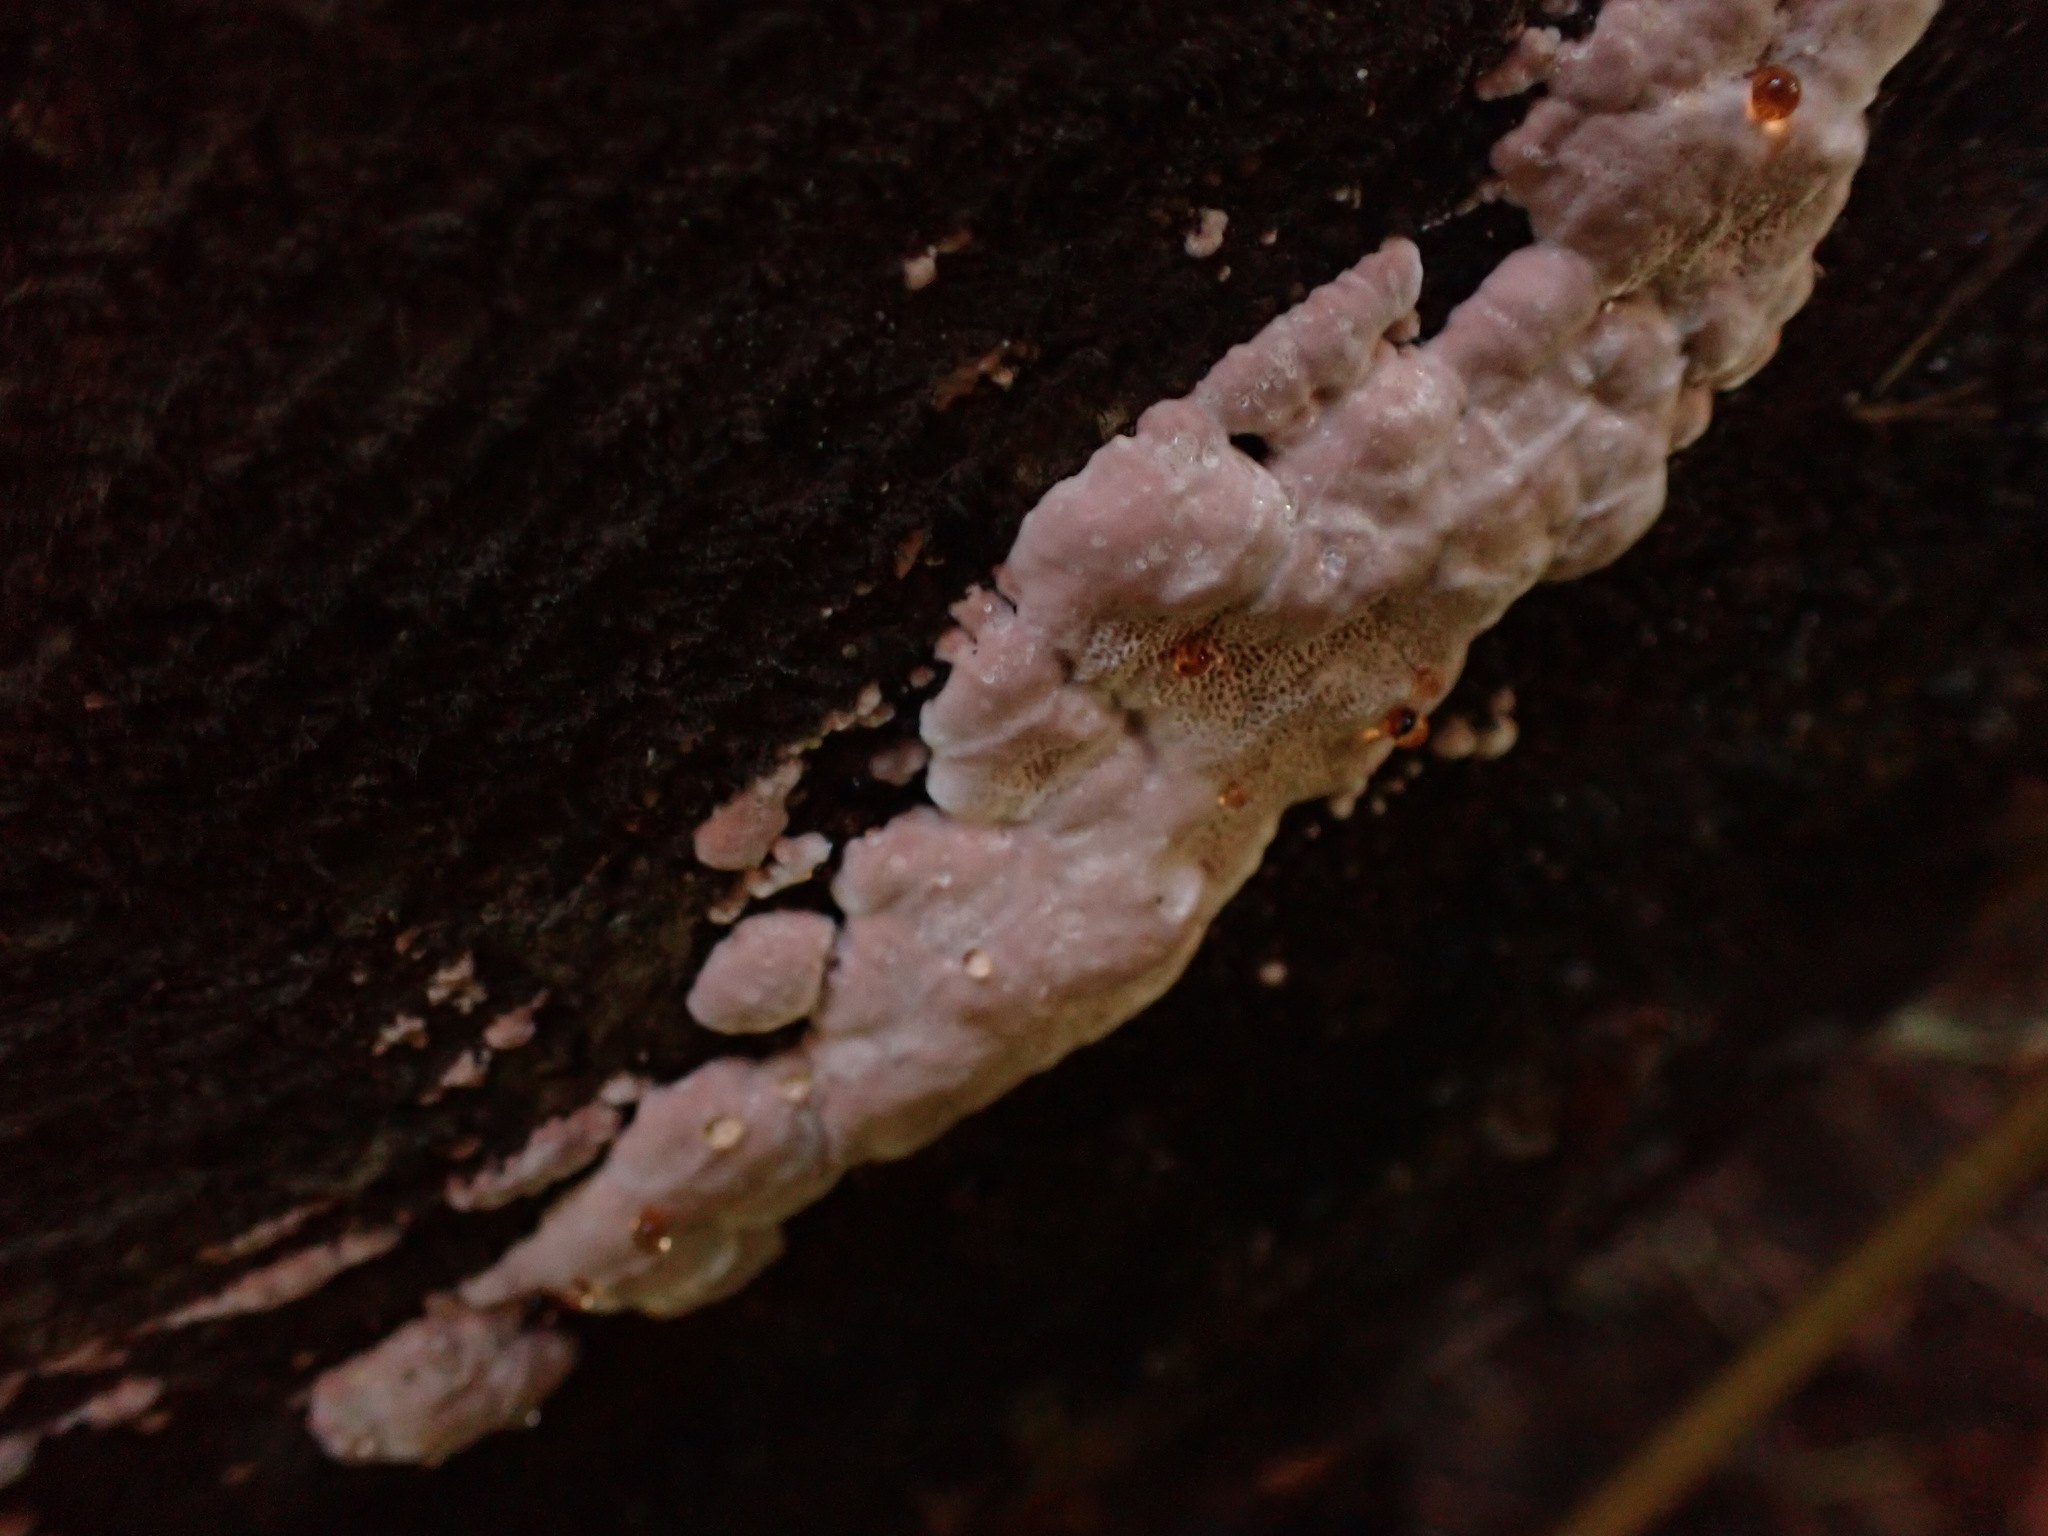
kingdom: Fungi
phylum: Basidiomycota
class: Agaricomycetes
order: Polyporales
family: Fomitopsidaceae
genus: Rhodofomes
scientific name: Rhodofomes cajanderi
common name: Rosy conk
